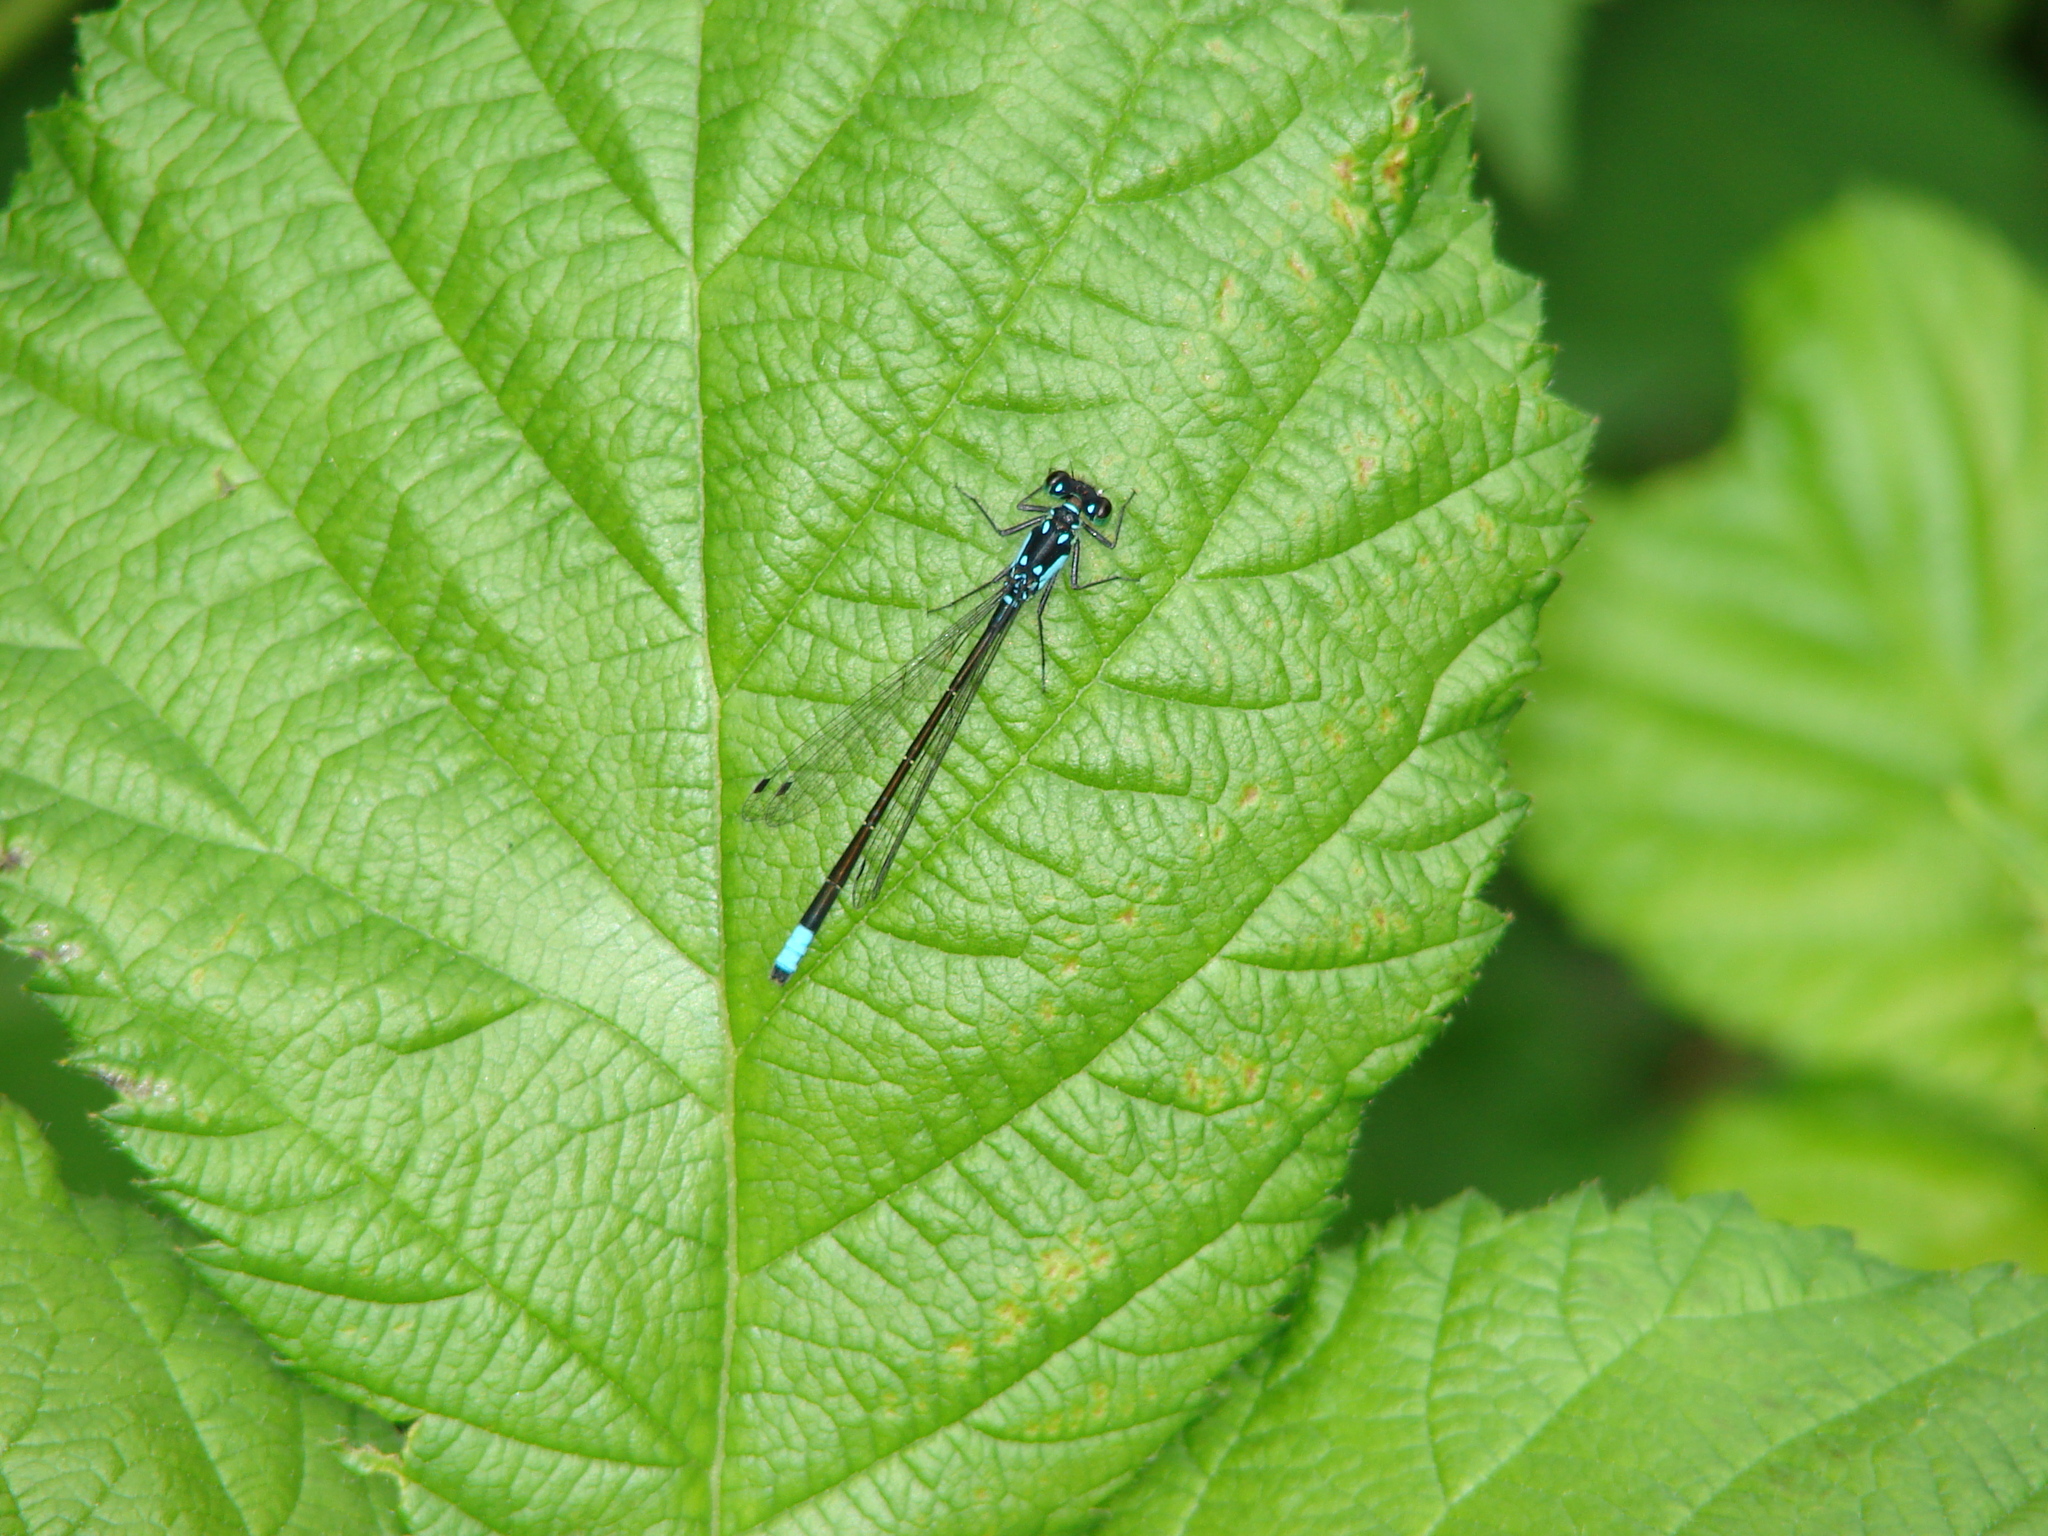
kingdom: Plantae
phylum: Tracheophyta
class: Magnoliopsida
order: Rosales
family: Rosaceae
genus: Rubus
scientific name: Rubus armeniacus
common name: Himalayan blackberry
